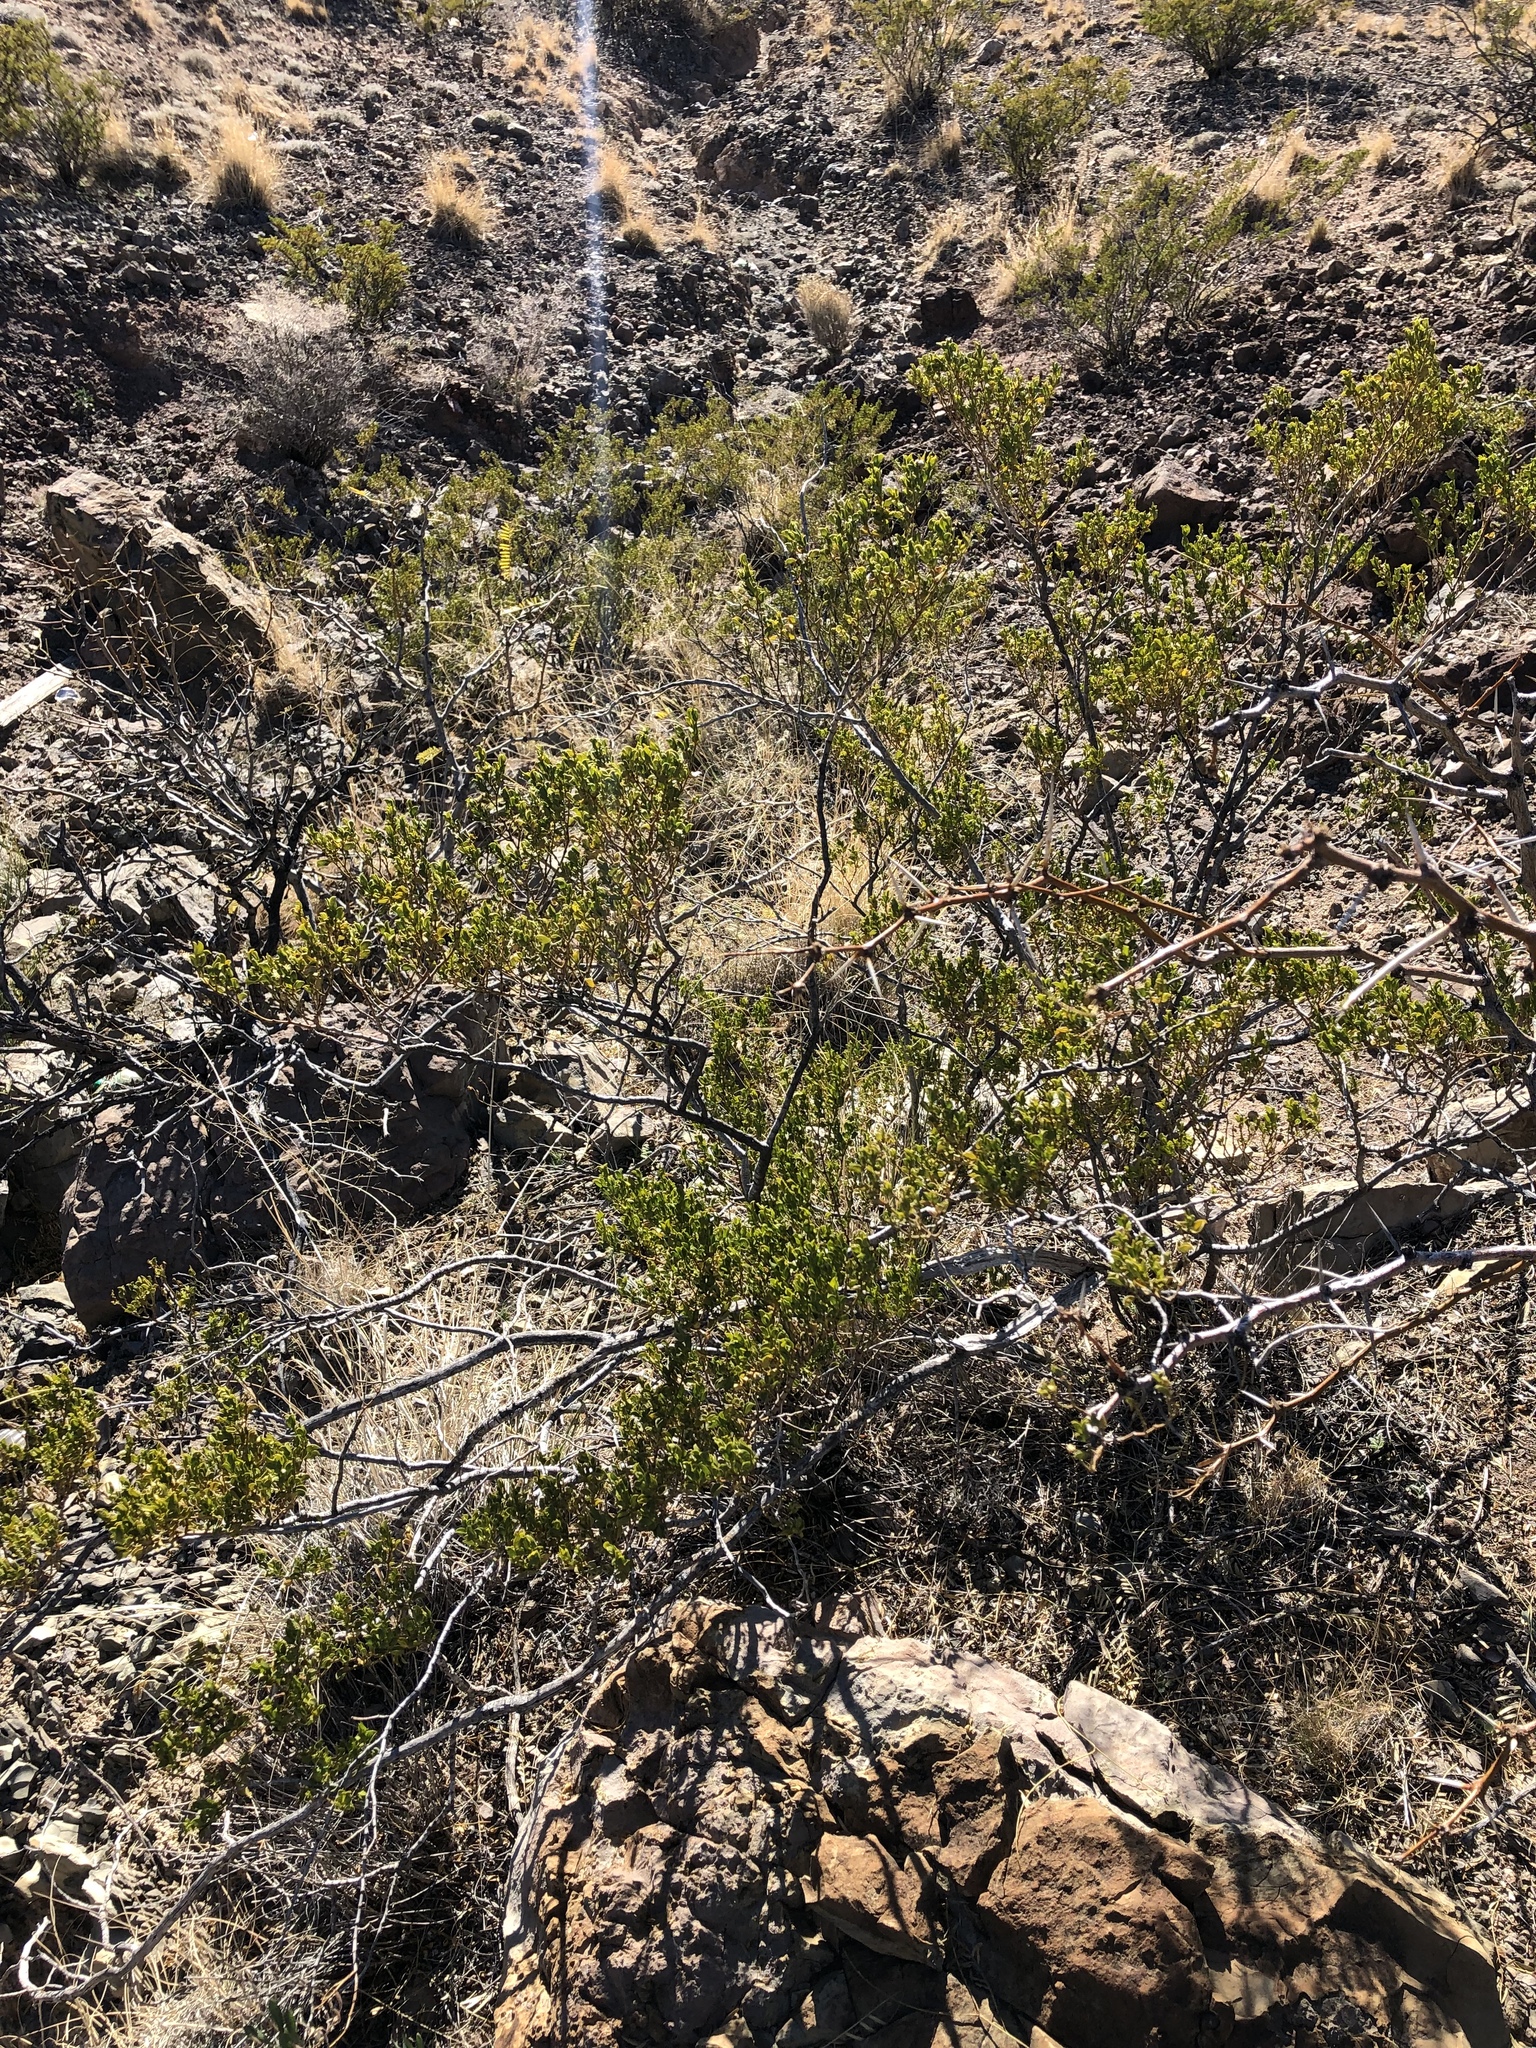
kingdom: Plantae
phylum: Tracheophyta
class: Magnoliopsida
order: Zygophyllales
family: Zygophyllaceae
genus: Larrea
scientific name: Larrea tridentata
